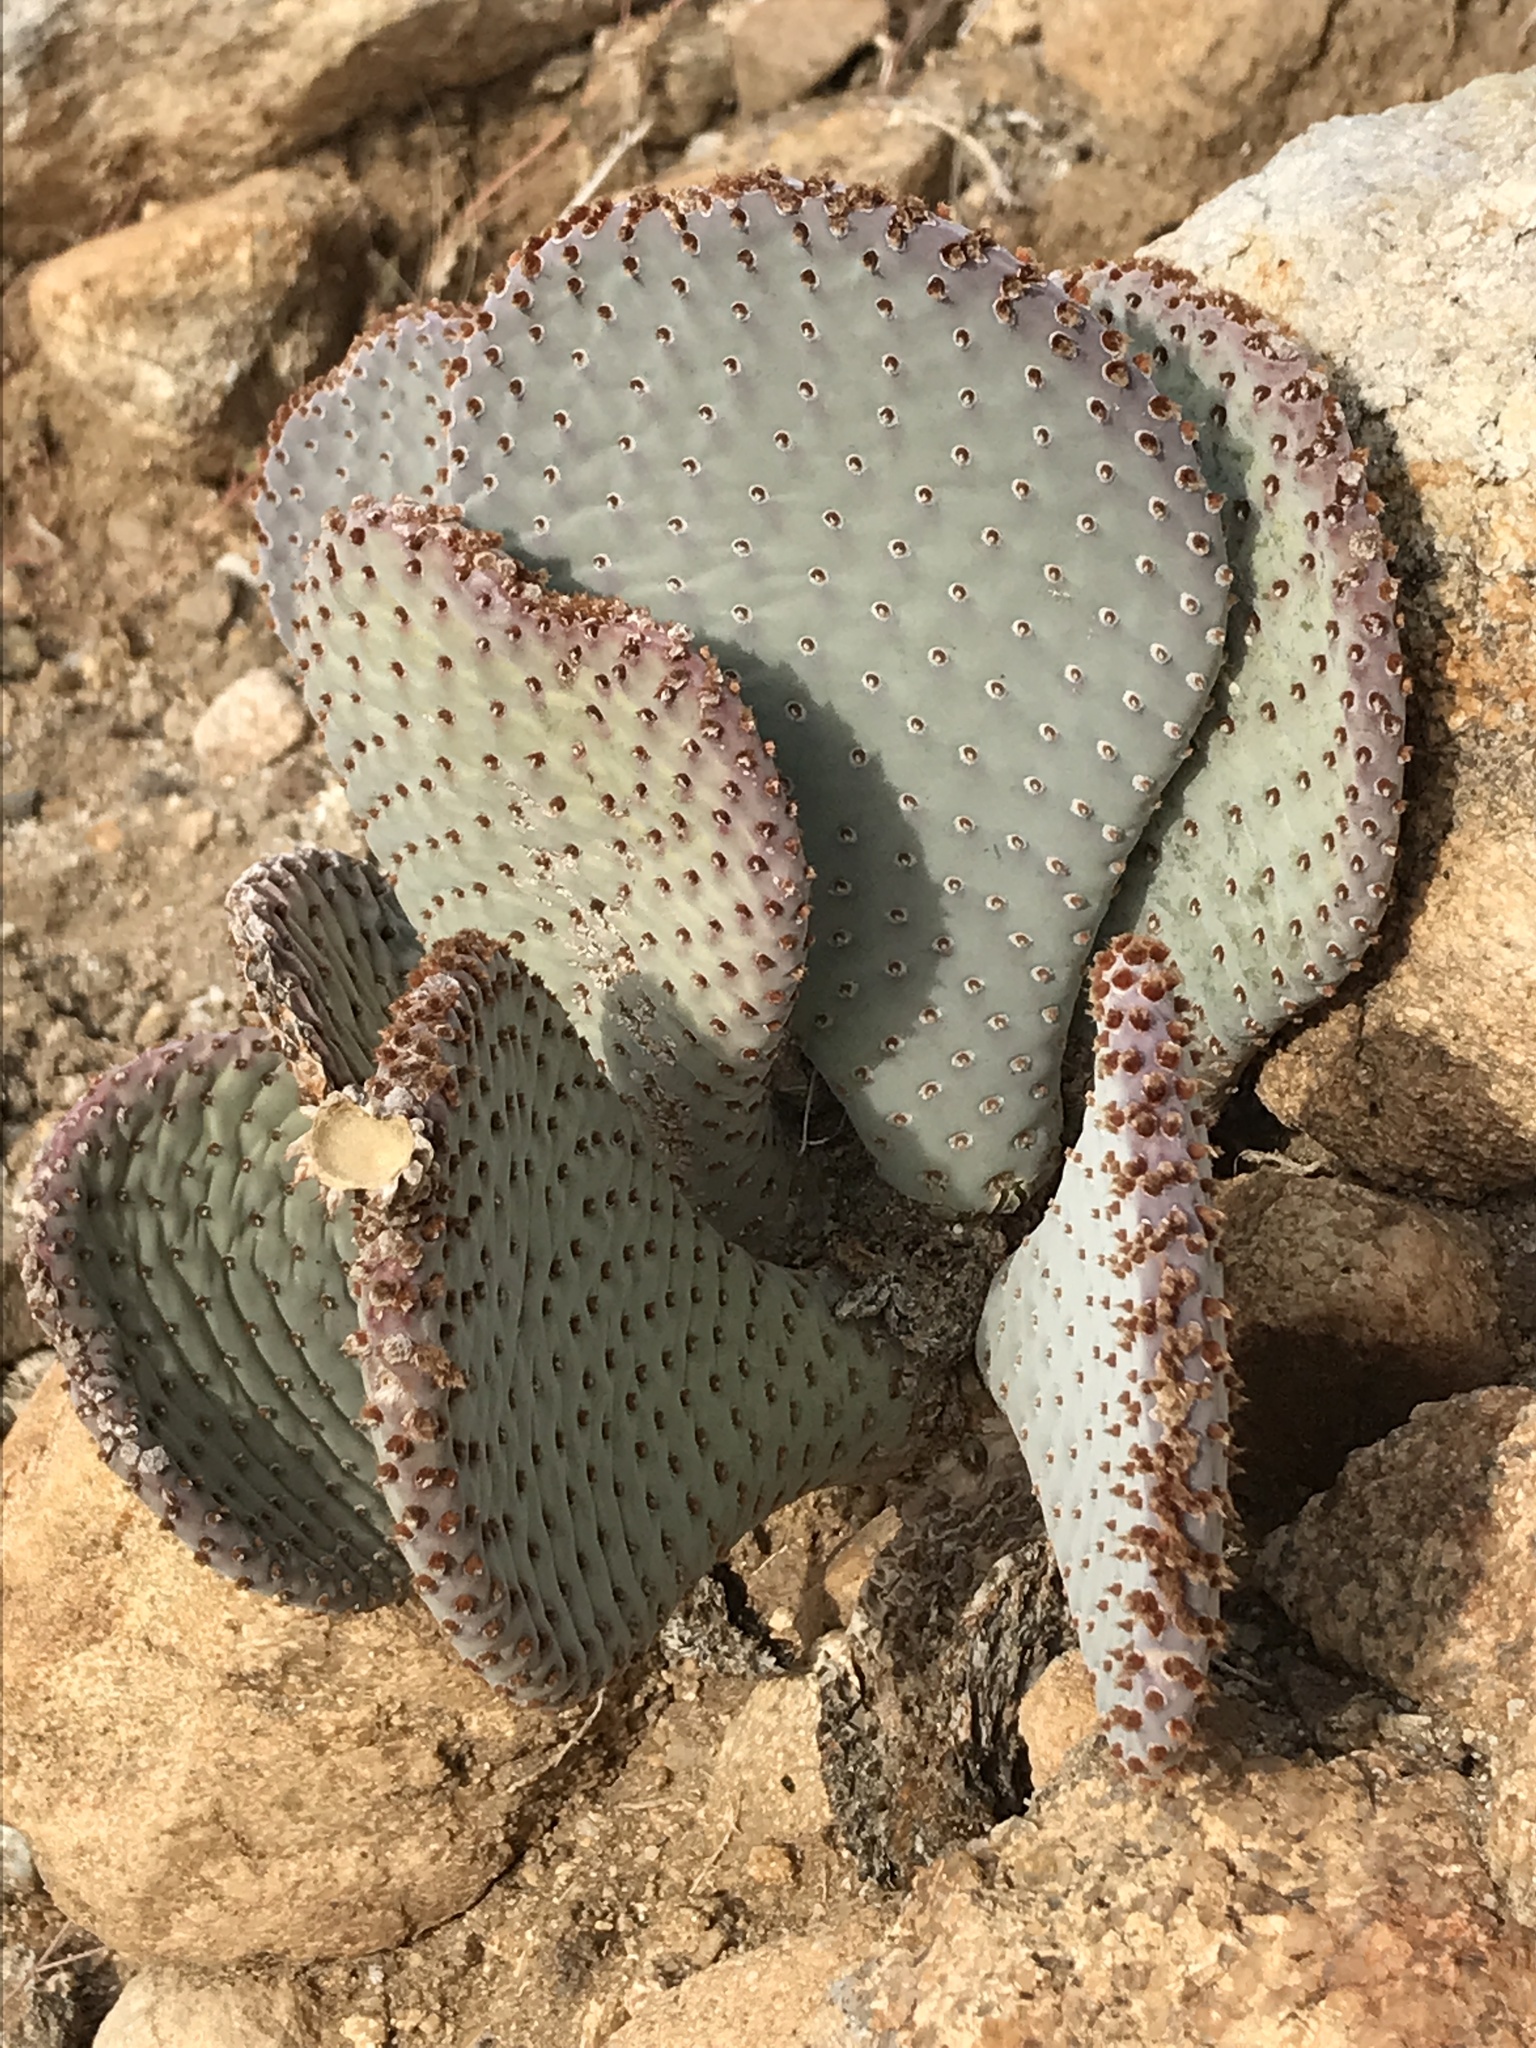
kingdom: Plantae
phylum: Tracheophyta
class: Magnoliopsida
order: Caryophyllales
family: Cactaceae
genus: Opuntia
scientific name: Opuntia basilaris
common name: Beavertail prickly-pear
